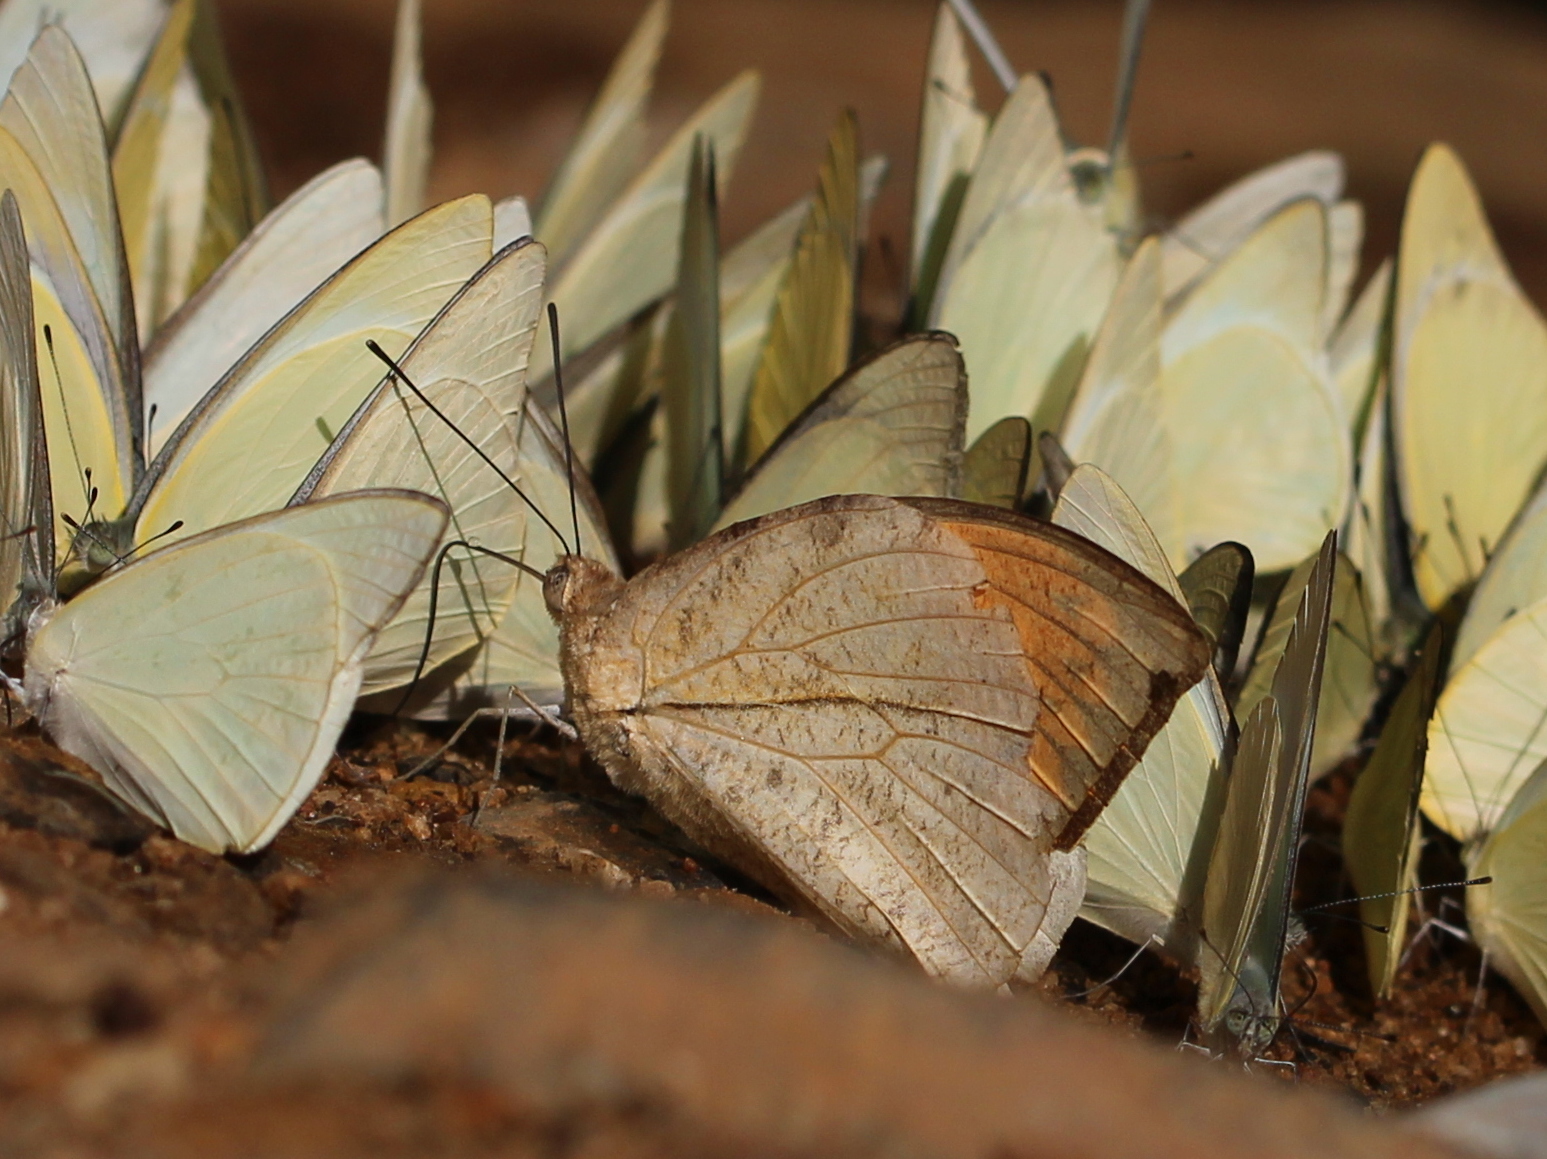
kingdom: Animalia
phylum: Arthropoda
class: Insecta
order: Lepidoptera
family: Pieridae
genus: Hebomoia
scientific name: Hebomoia glaucippe
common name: Great orange tip
